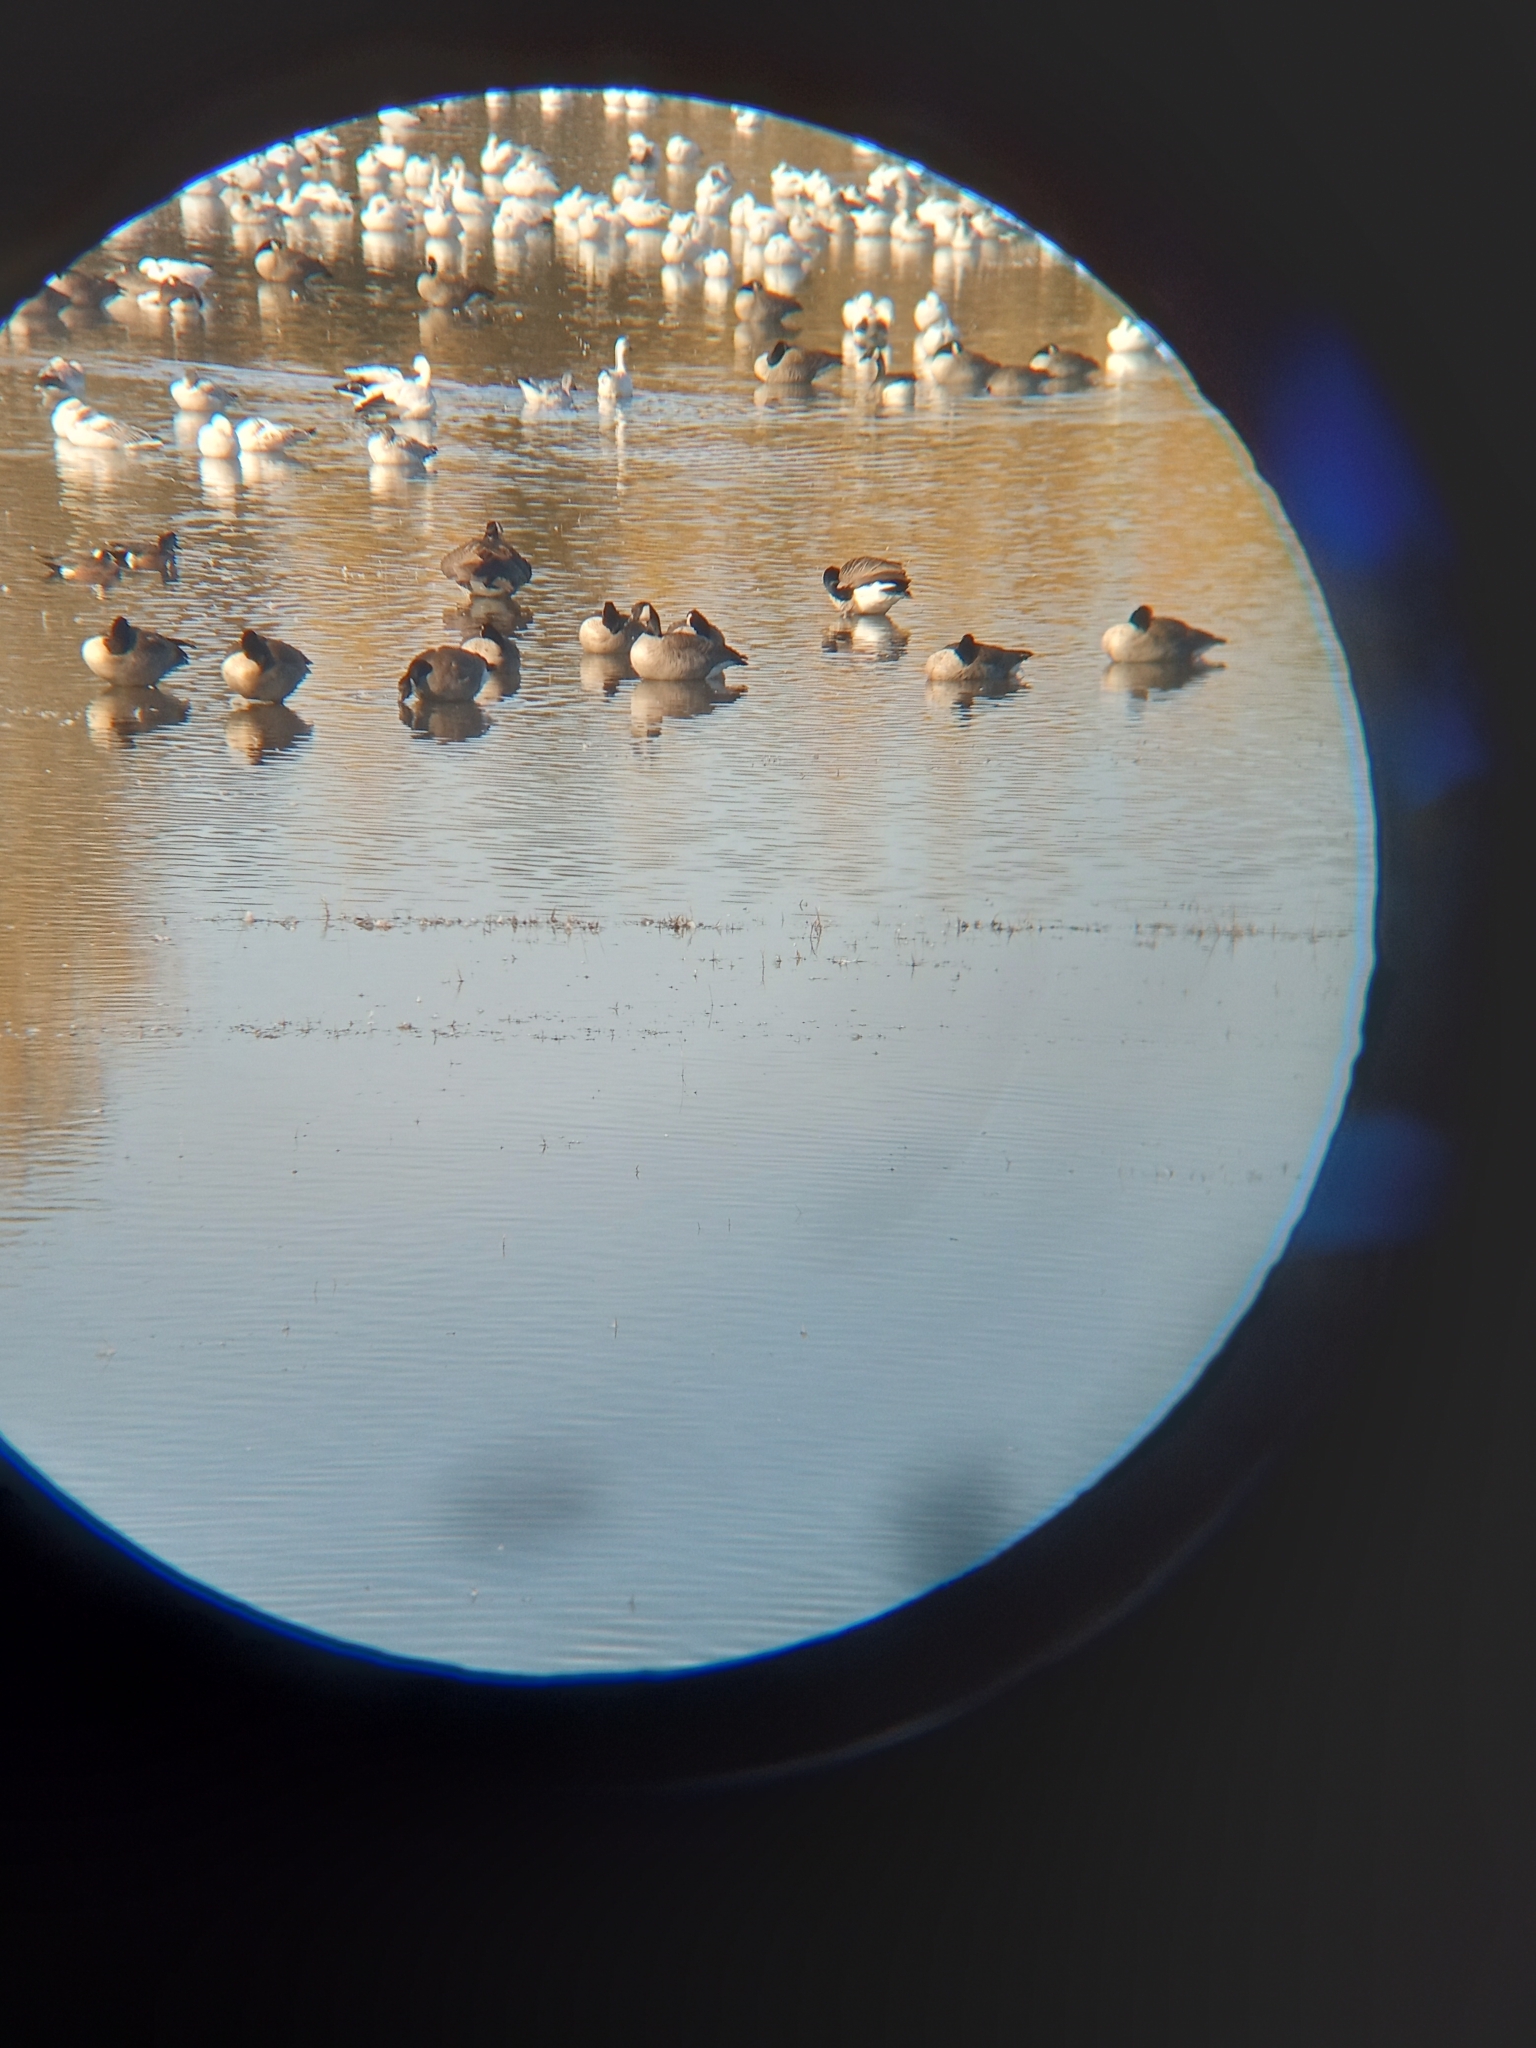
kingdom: Animalia
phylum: Chordata
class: Aves
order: Anseriformes
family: Anatidae
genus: Branta
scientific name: Branta canadensis
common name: Canada goose
